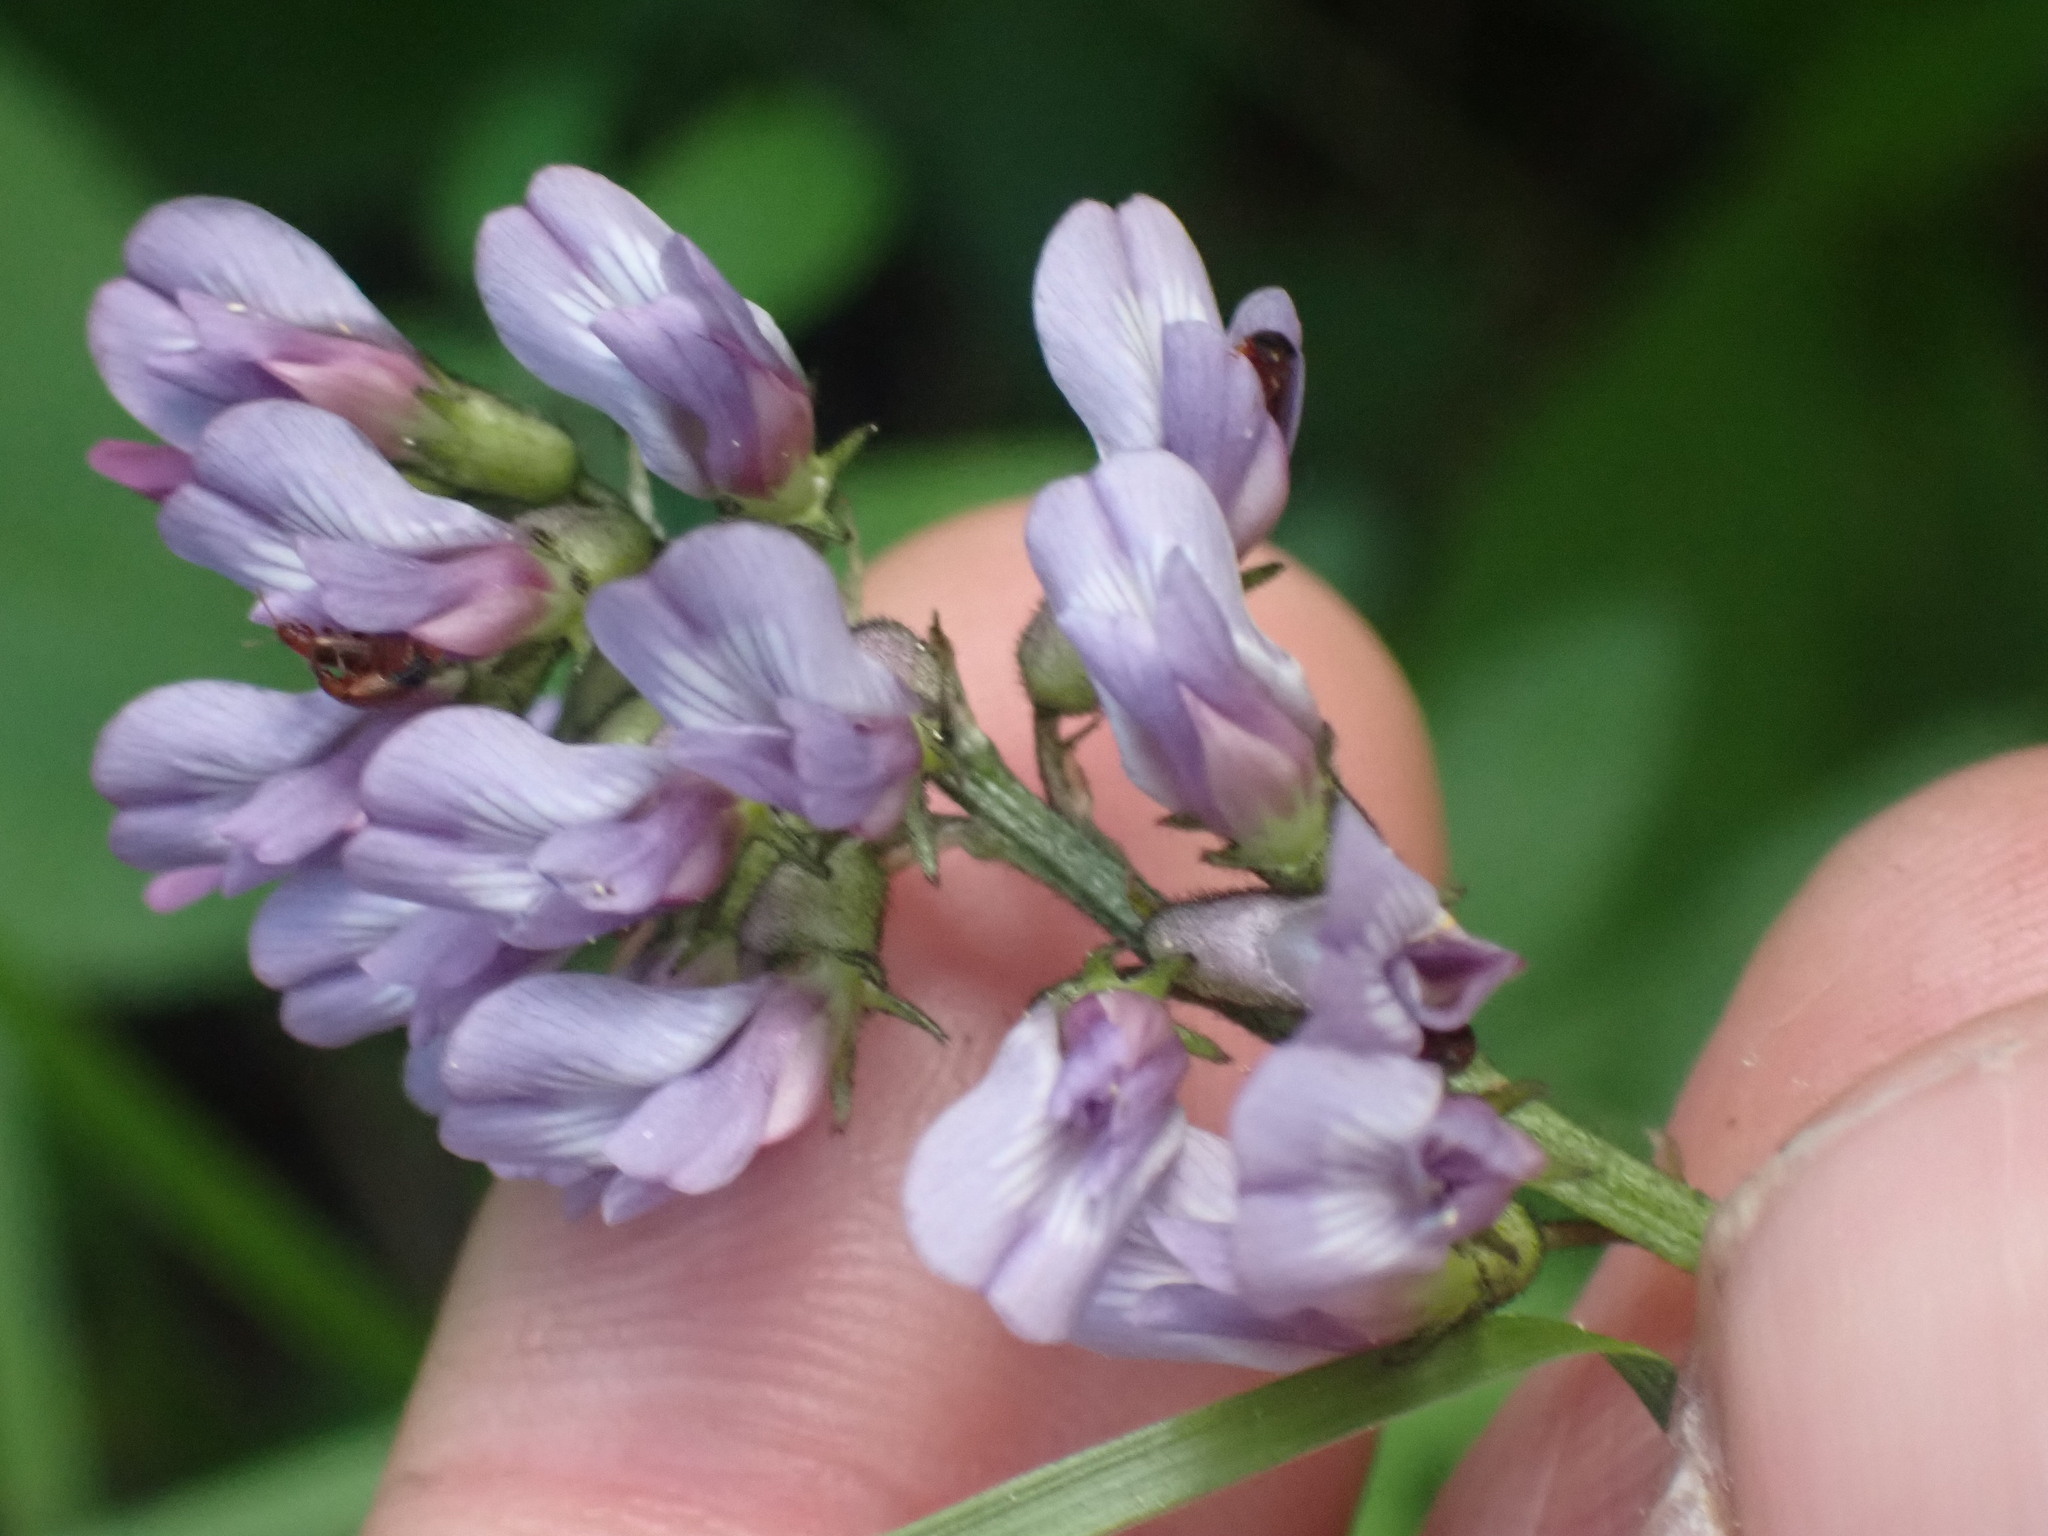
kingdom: Plantae
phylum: Tracheophyta
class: Magnoliopsida
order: Fabales
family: Fabaceae
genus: Astragalus
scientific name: Astragalus robbinsii
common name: Robbins' milk-vetch
